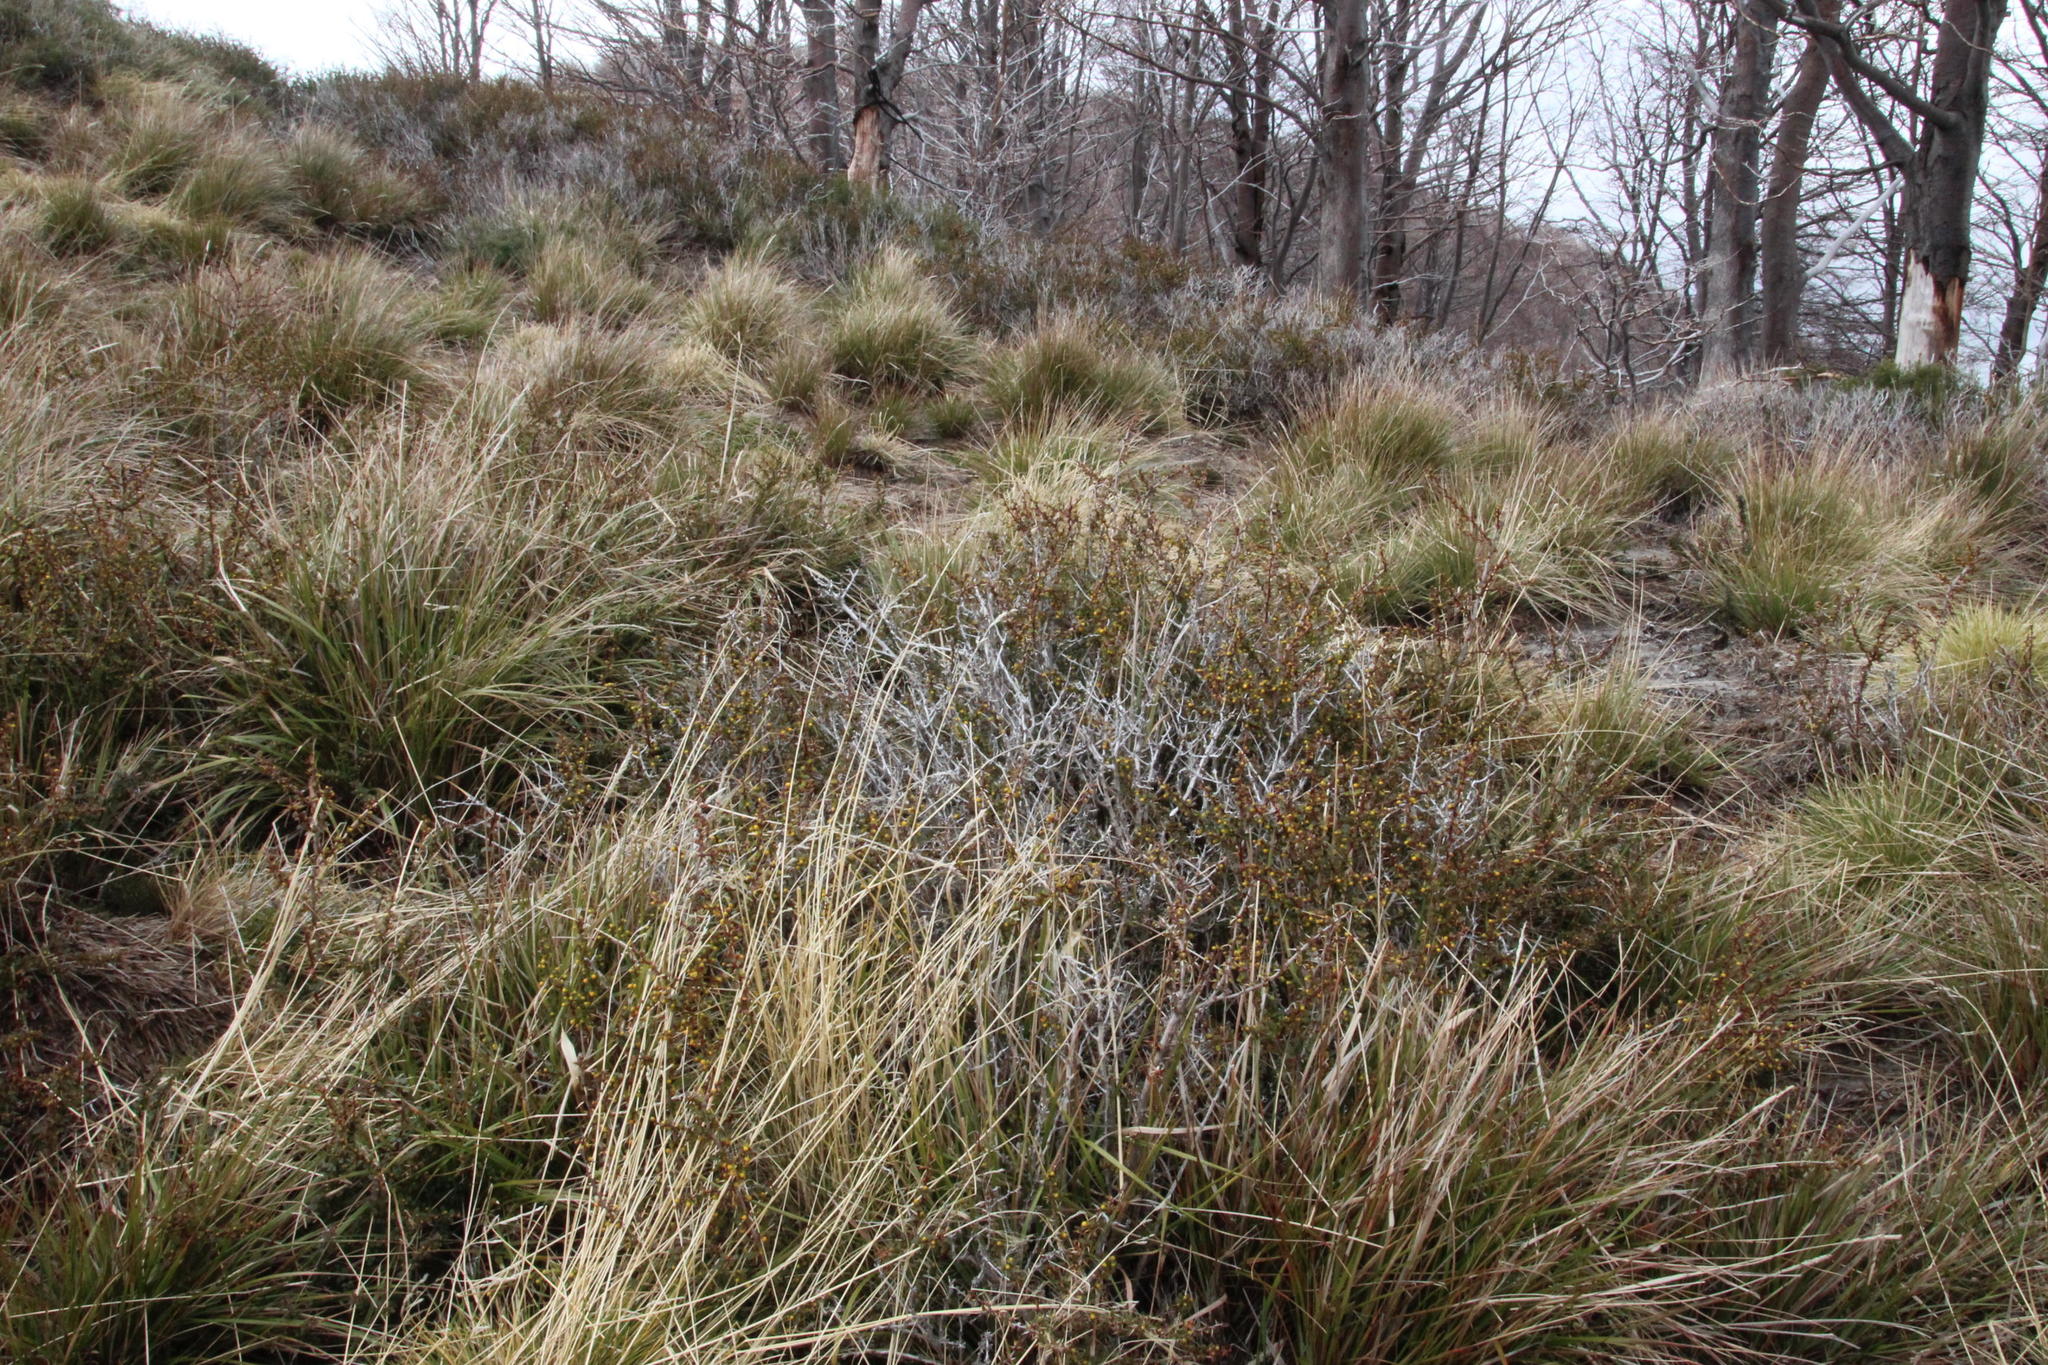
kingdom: Plantae
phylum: Tracheophyta
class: Magnoliopsida
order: Ranunculales
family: Berberidaceae
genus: Berberis
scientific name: Berberis microphylla
